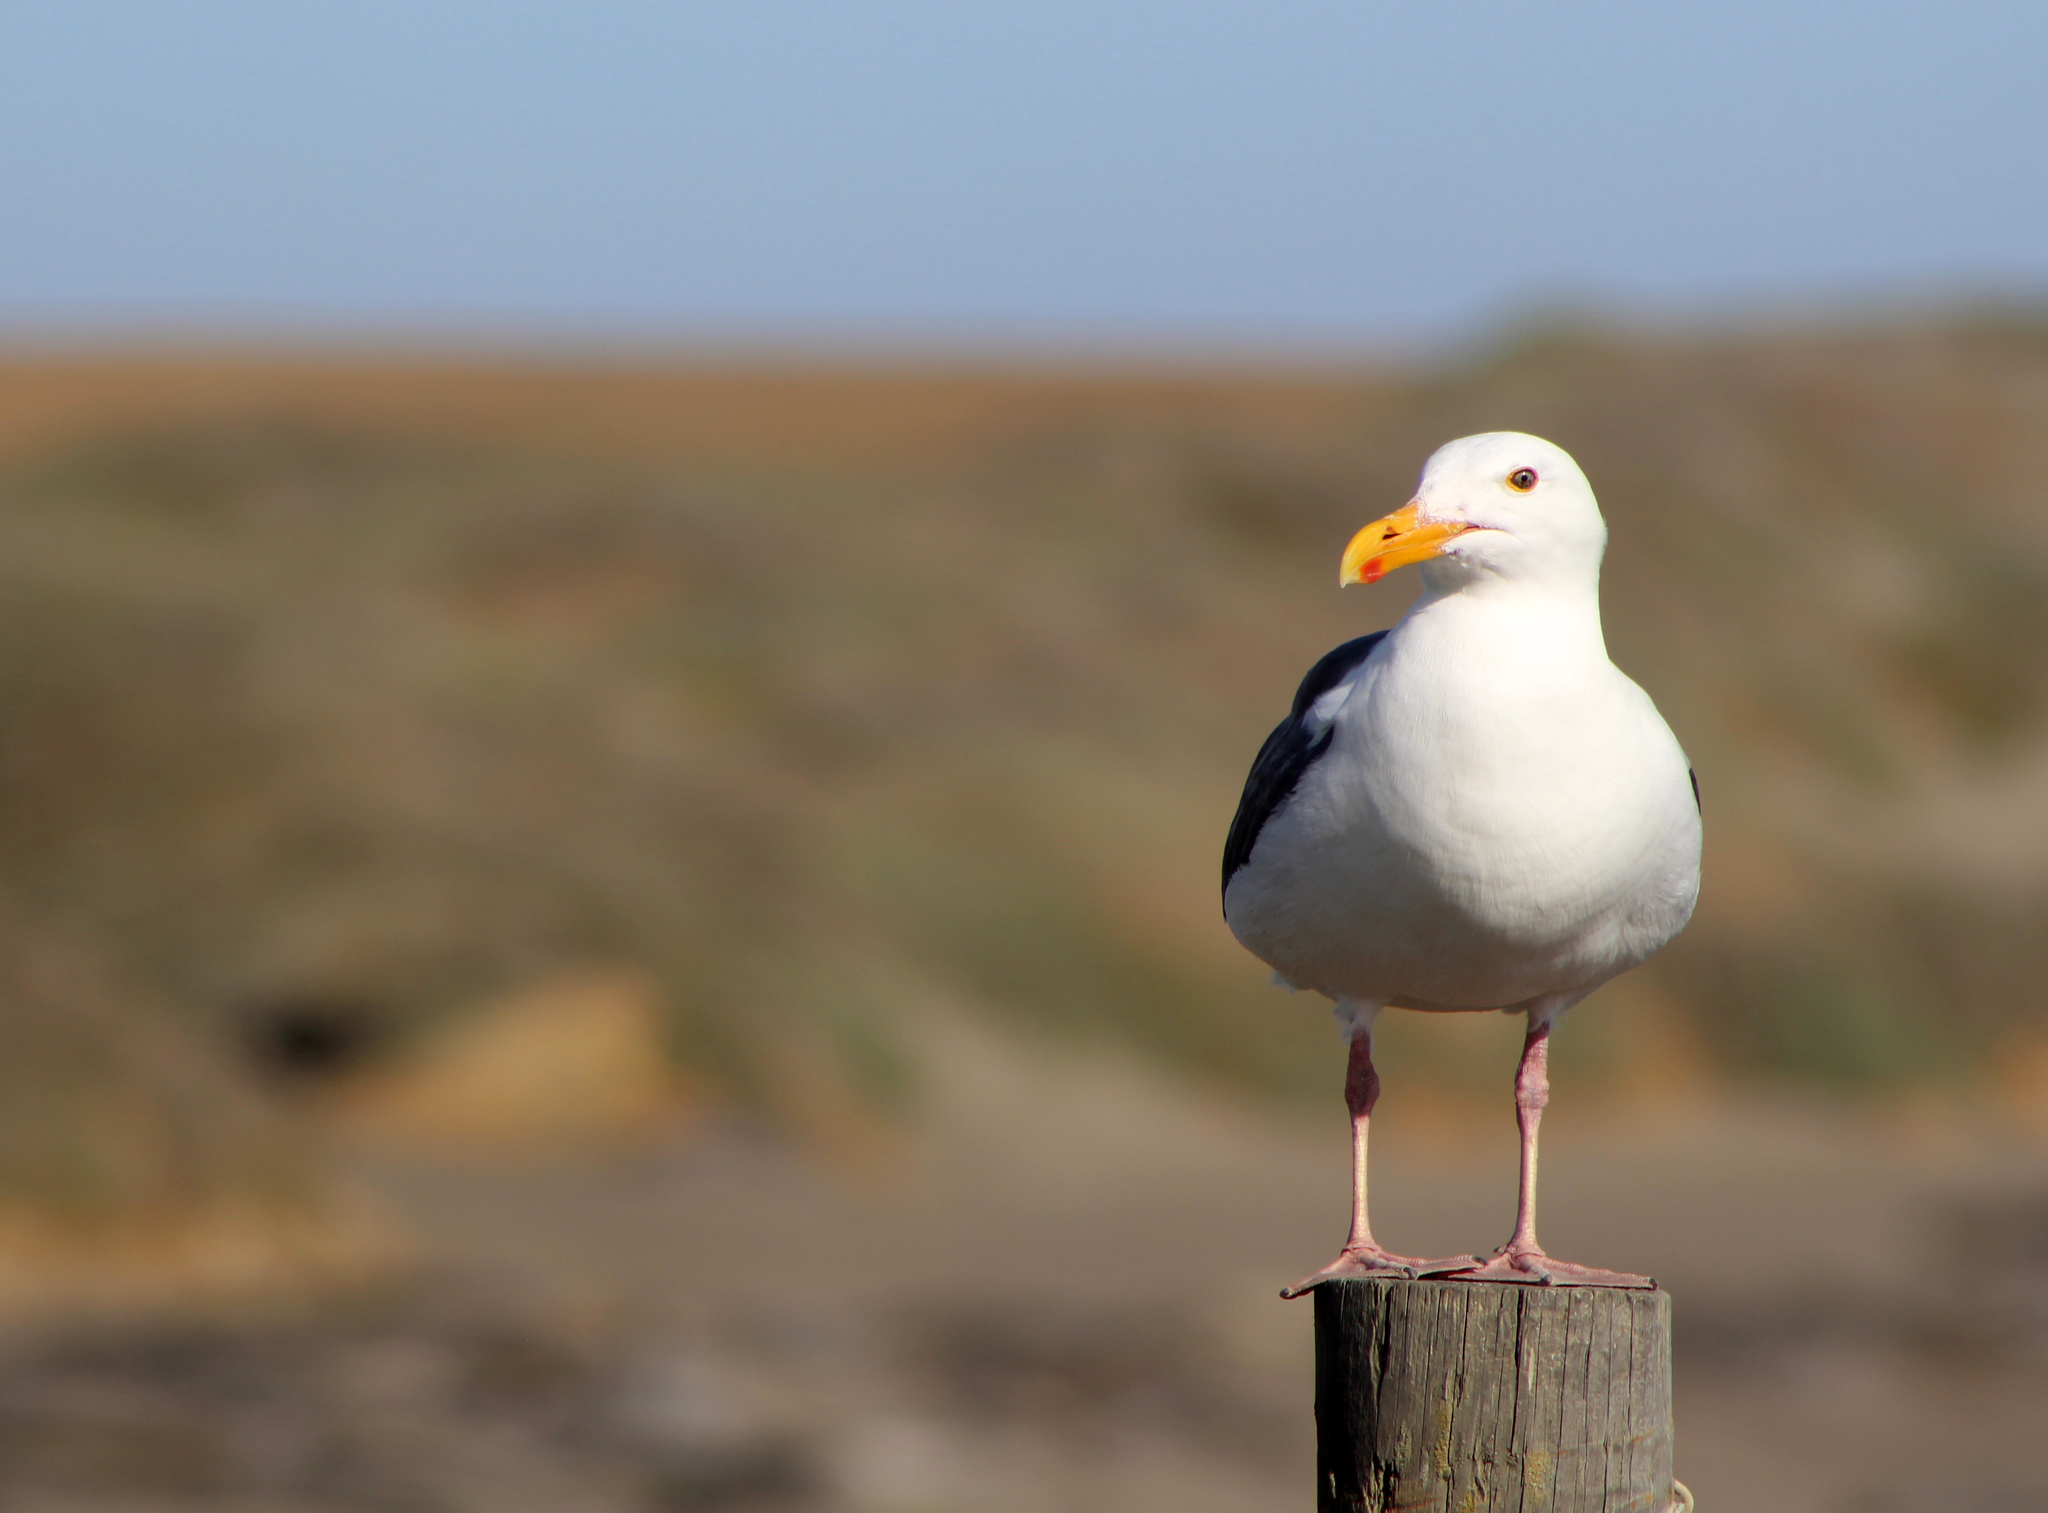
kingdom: Animalia
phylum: Chordata
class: Aves
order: Charadriiformes
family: Laridae
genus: Larus
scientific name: Larus occidentalis
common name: Western gull
